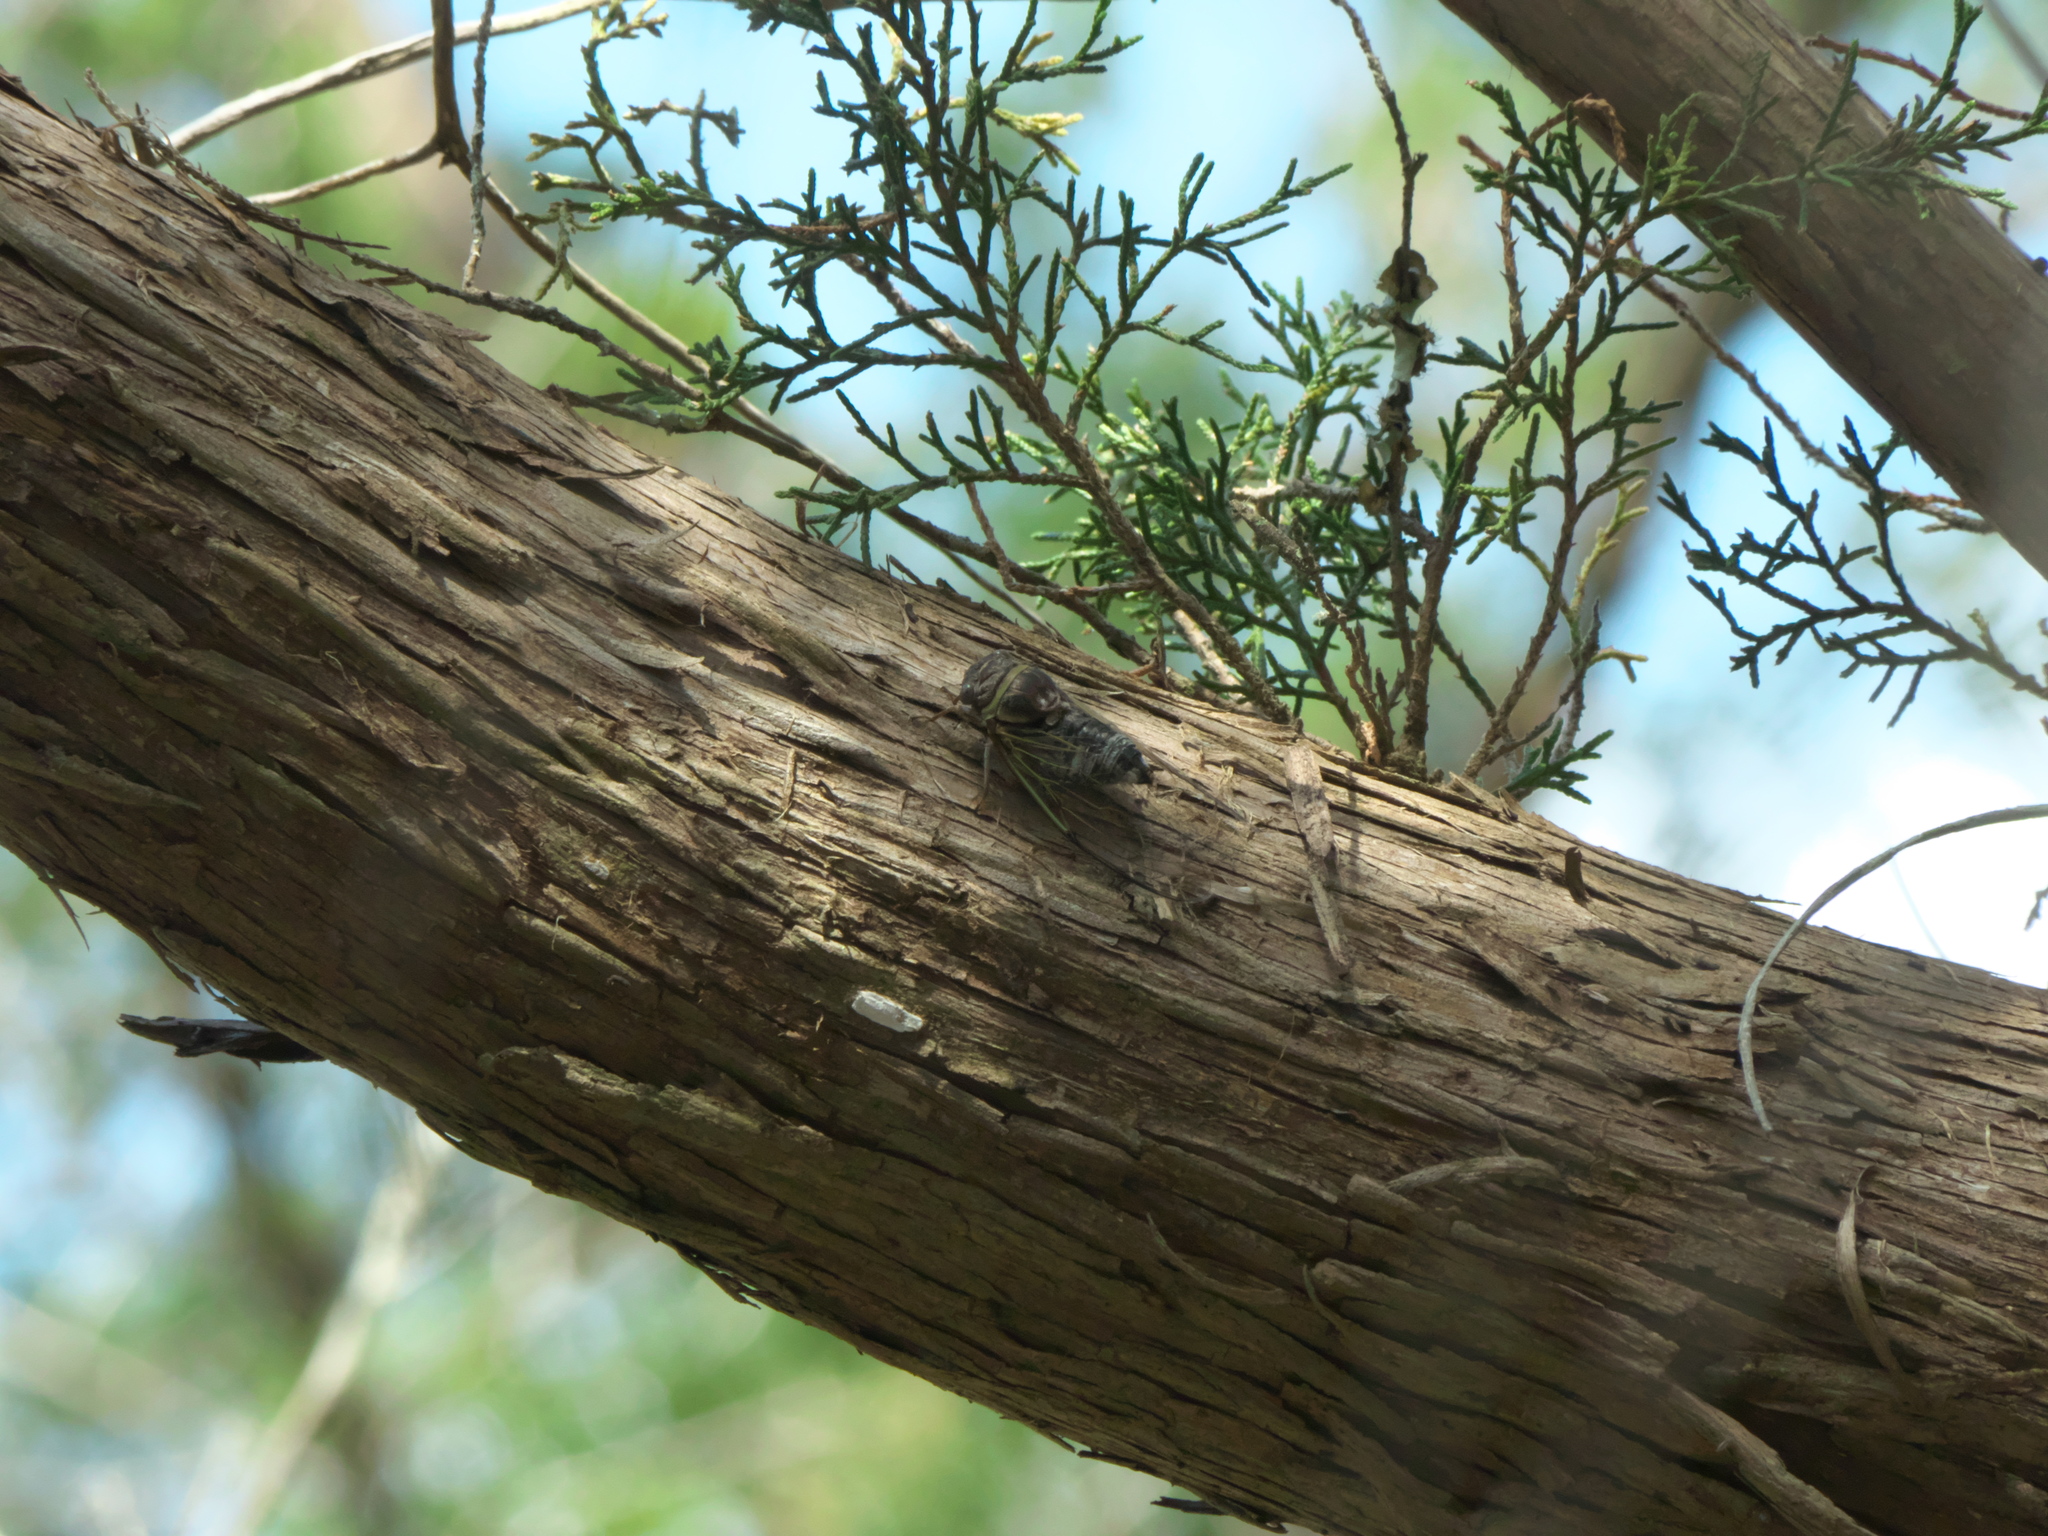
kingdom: Plantae
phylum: Tracheophyta
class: Pinopsida
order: Pinales
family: Cupressaceae
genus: Juniperus
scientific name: Juniperus virginiana
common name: Red juniper
